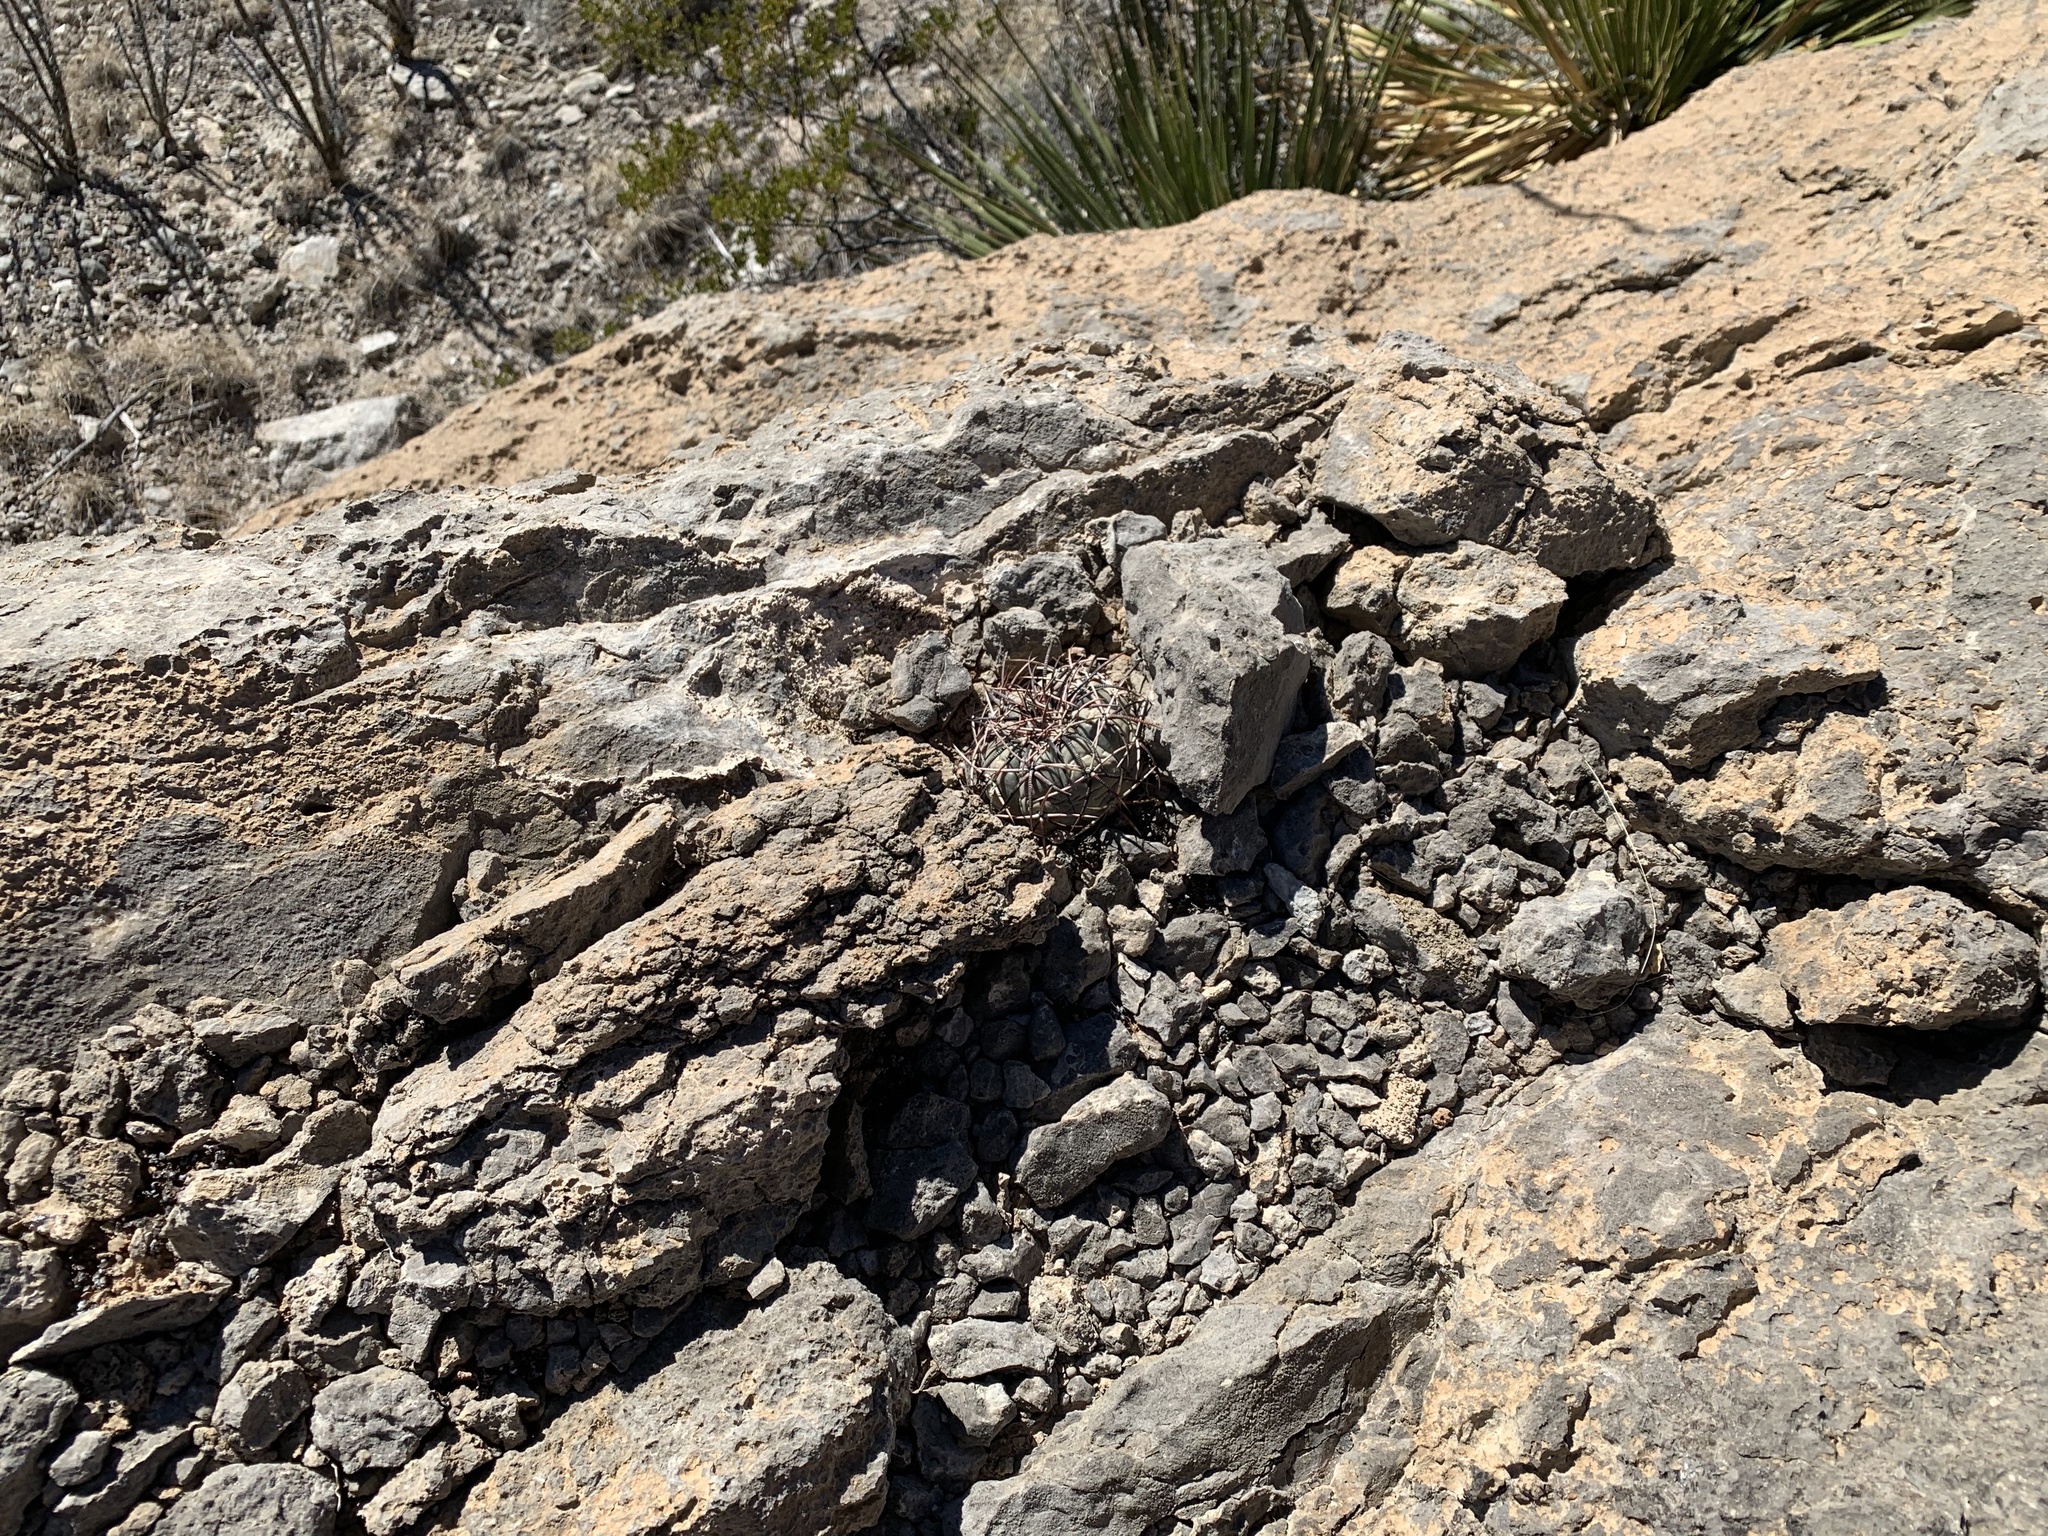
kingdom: Plantae
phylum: Tracheophyta
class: Magnoliopsida
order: Caryophyllales
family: Cactaceae
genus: Echinocactus
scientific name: Echinocactus horizonthalonius
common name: Devilshead
